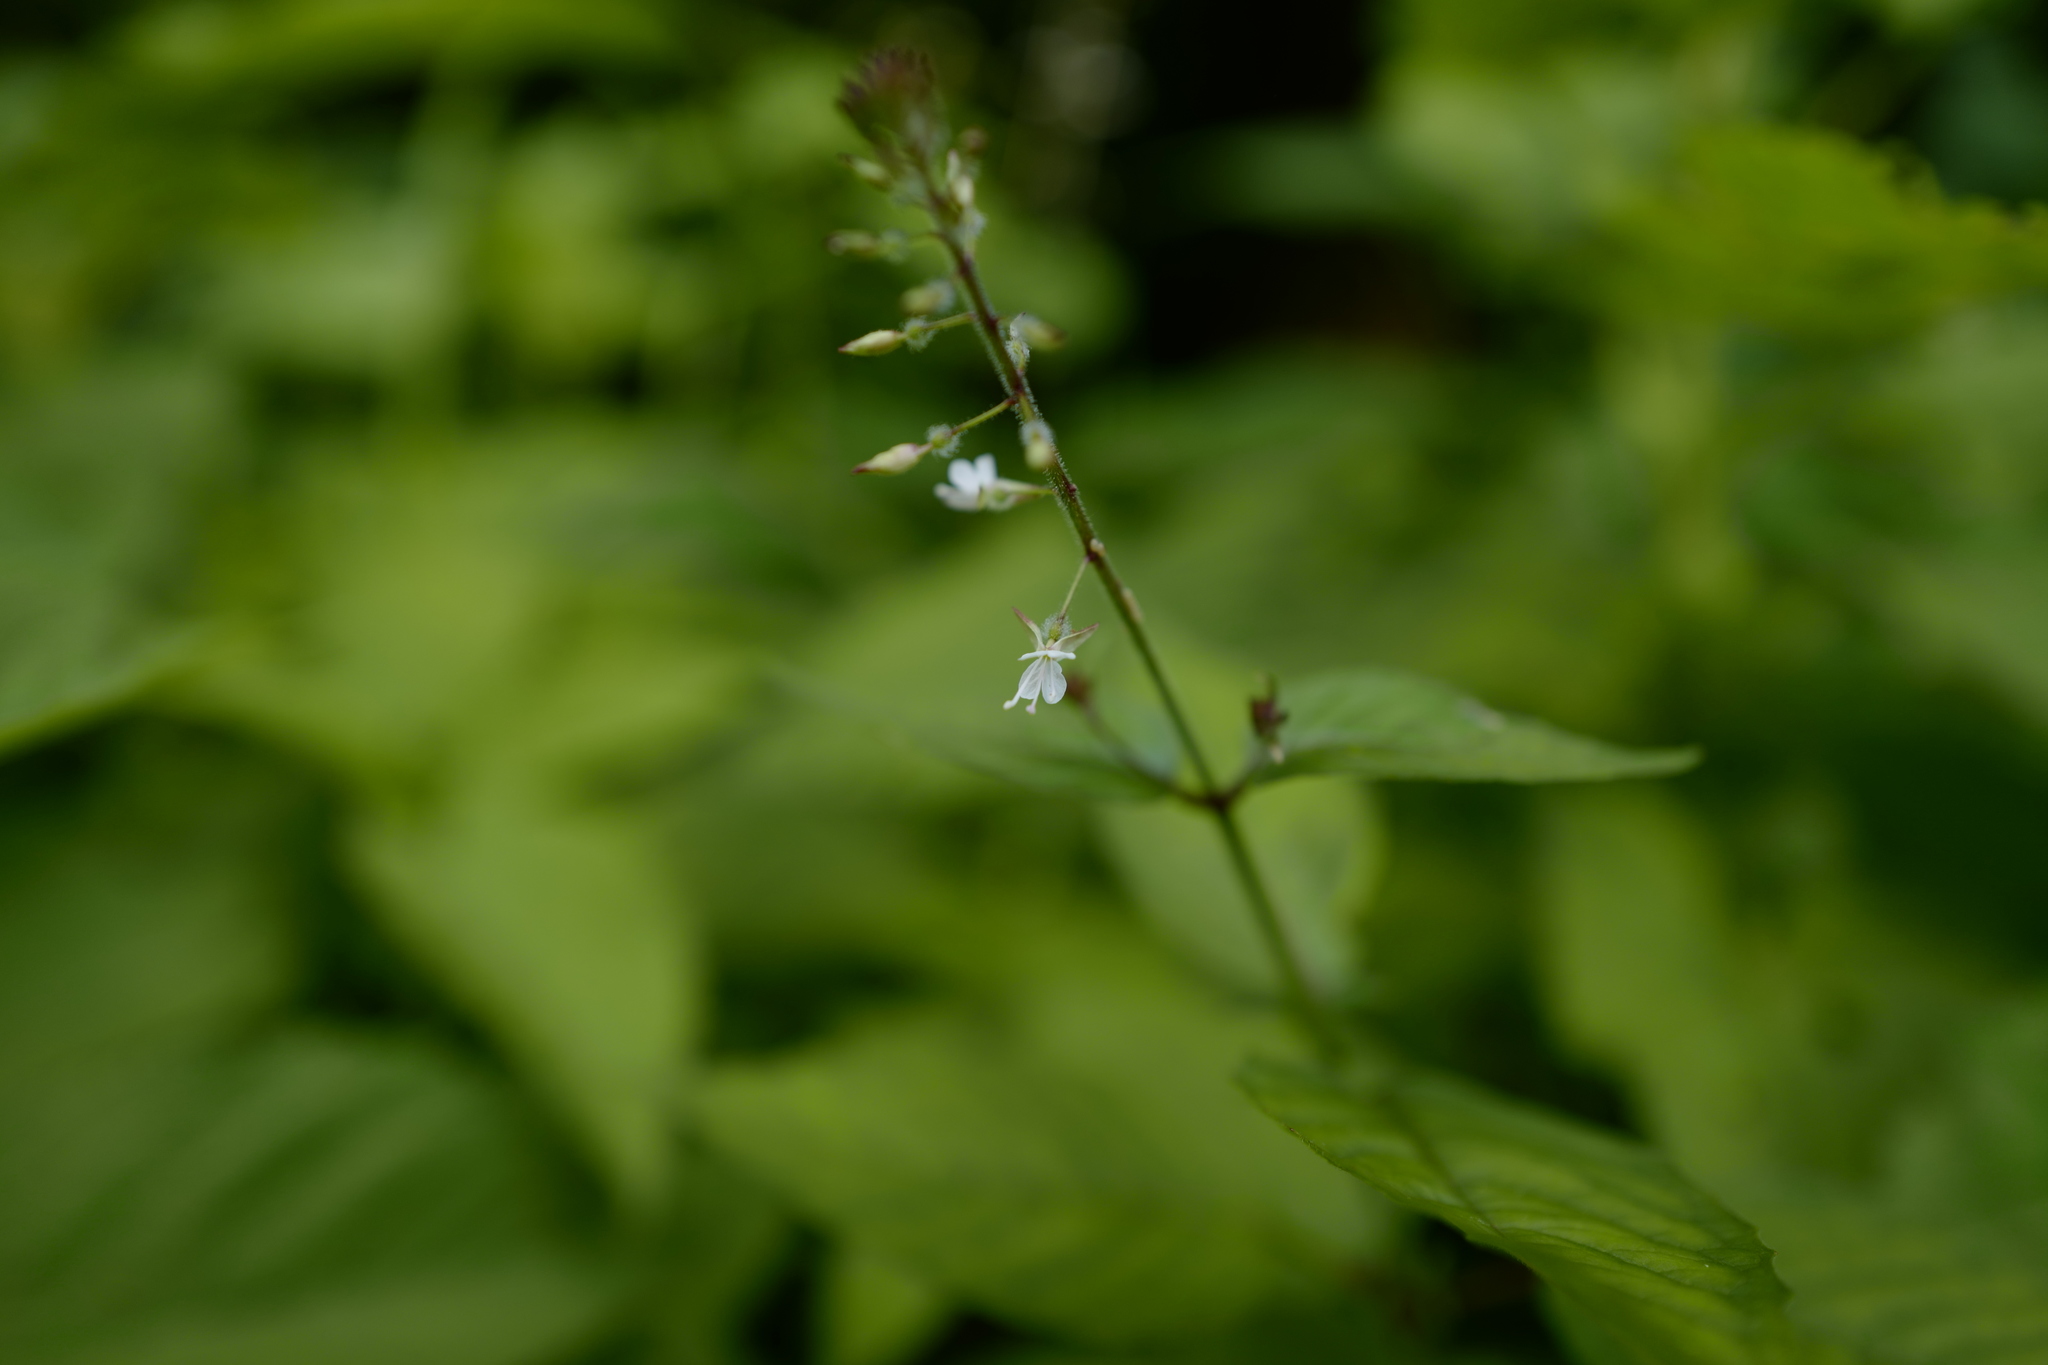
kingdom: Plantae
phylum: Tracheophyta
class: Magnoliopsida
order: Myrtales
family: Onagraceae
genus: Circaea
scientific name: Circaea lutetiana
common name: Enchanter's-nightshade
